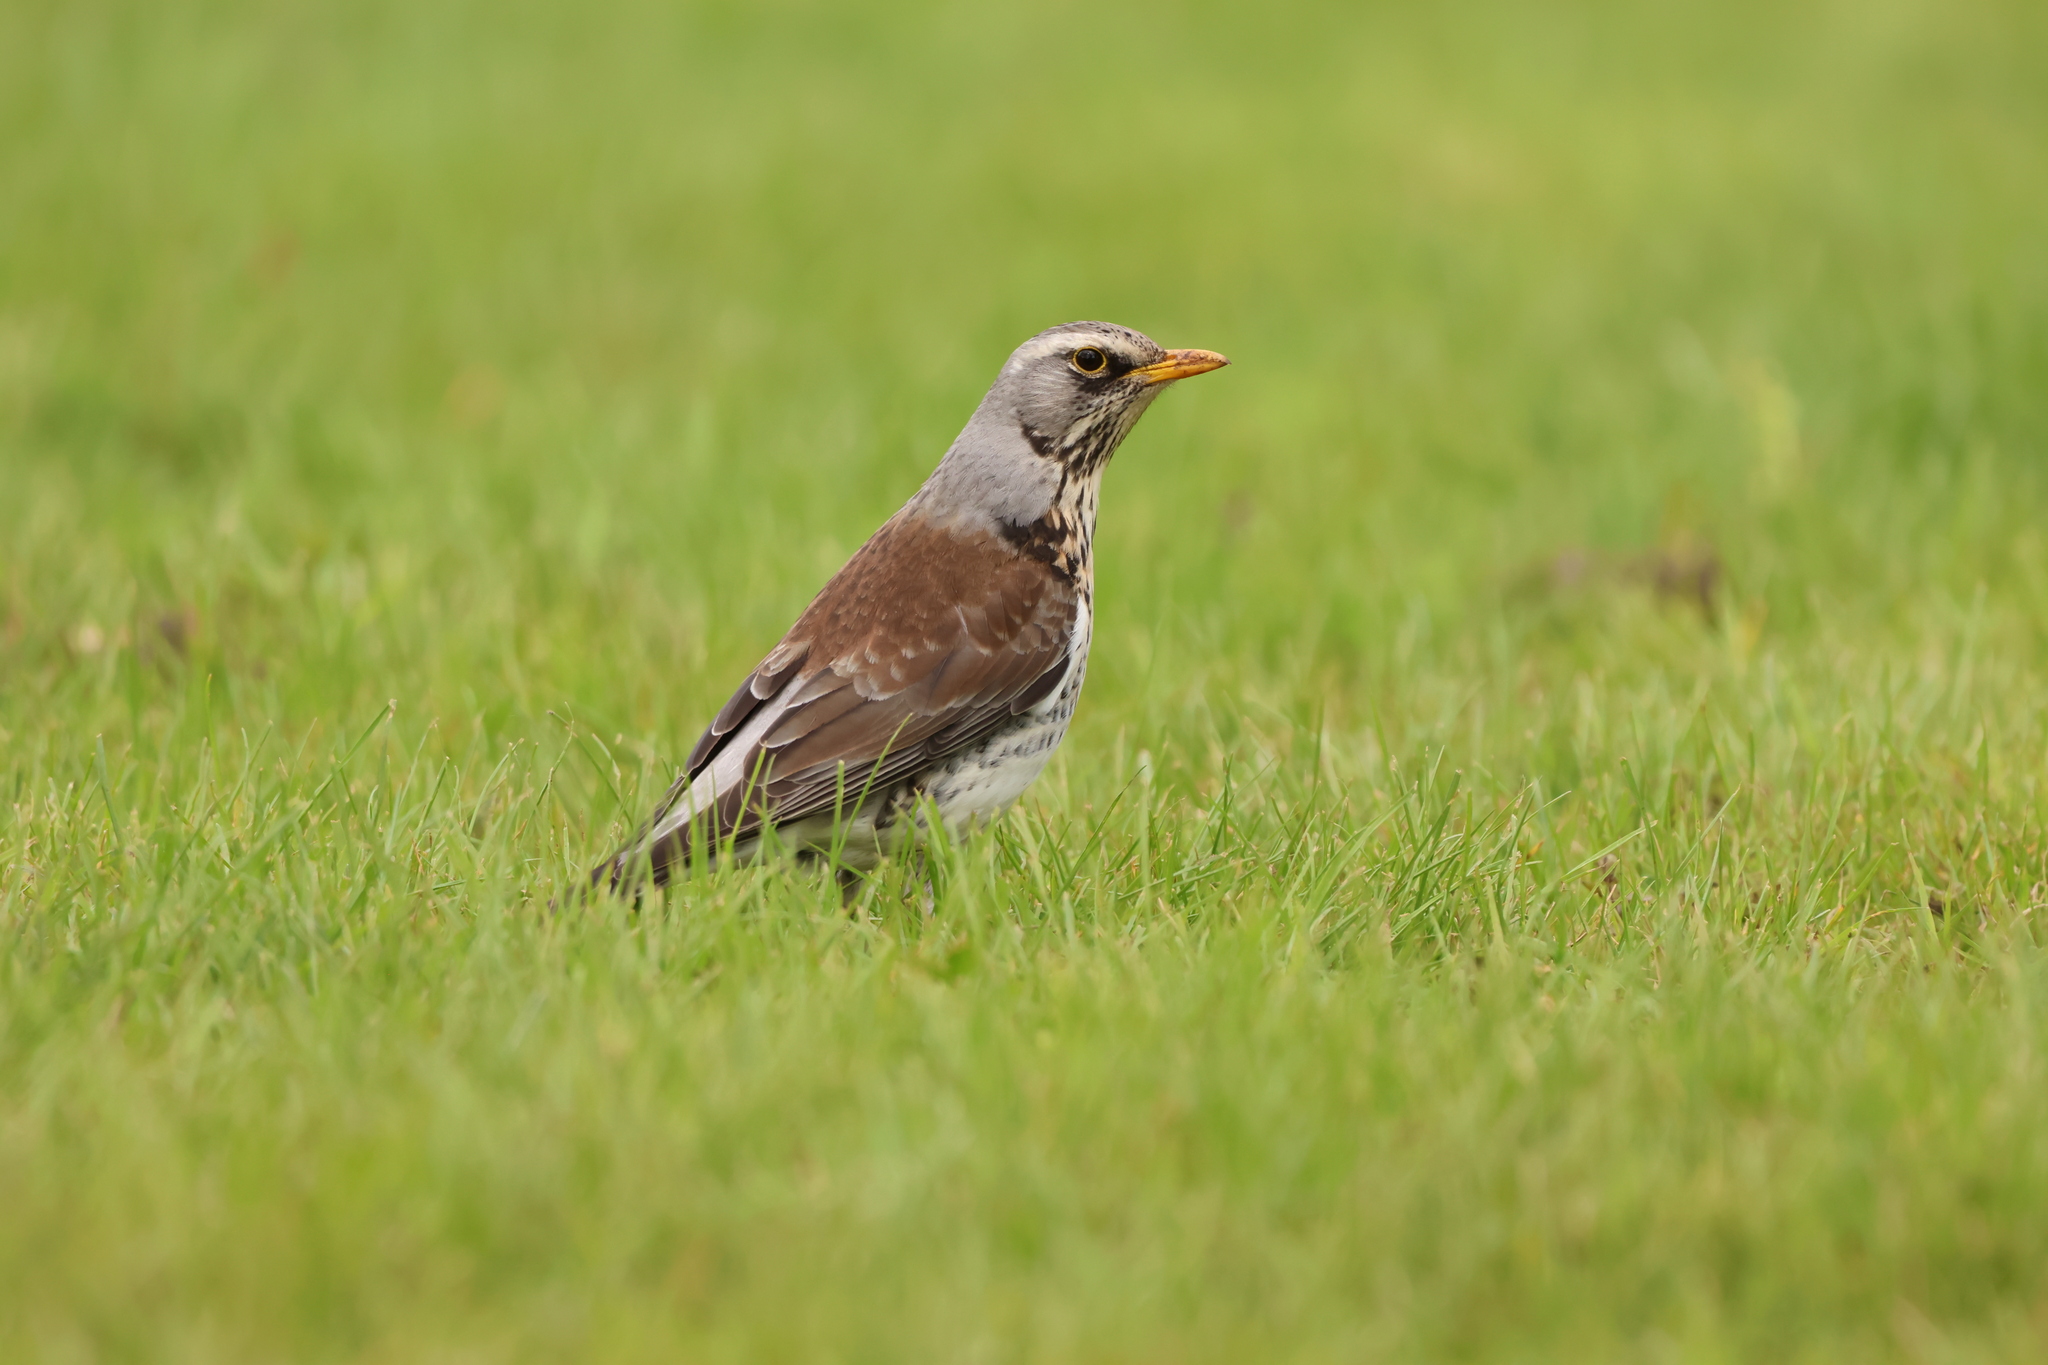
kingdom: Animalia
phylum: Chordata
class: Aves
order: Passeriformes
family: Turdidae
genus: Turdus
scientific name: Turdus pilaris
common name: Fieldfare
